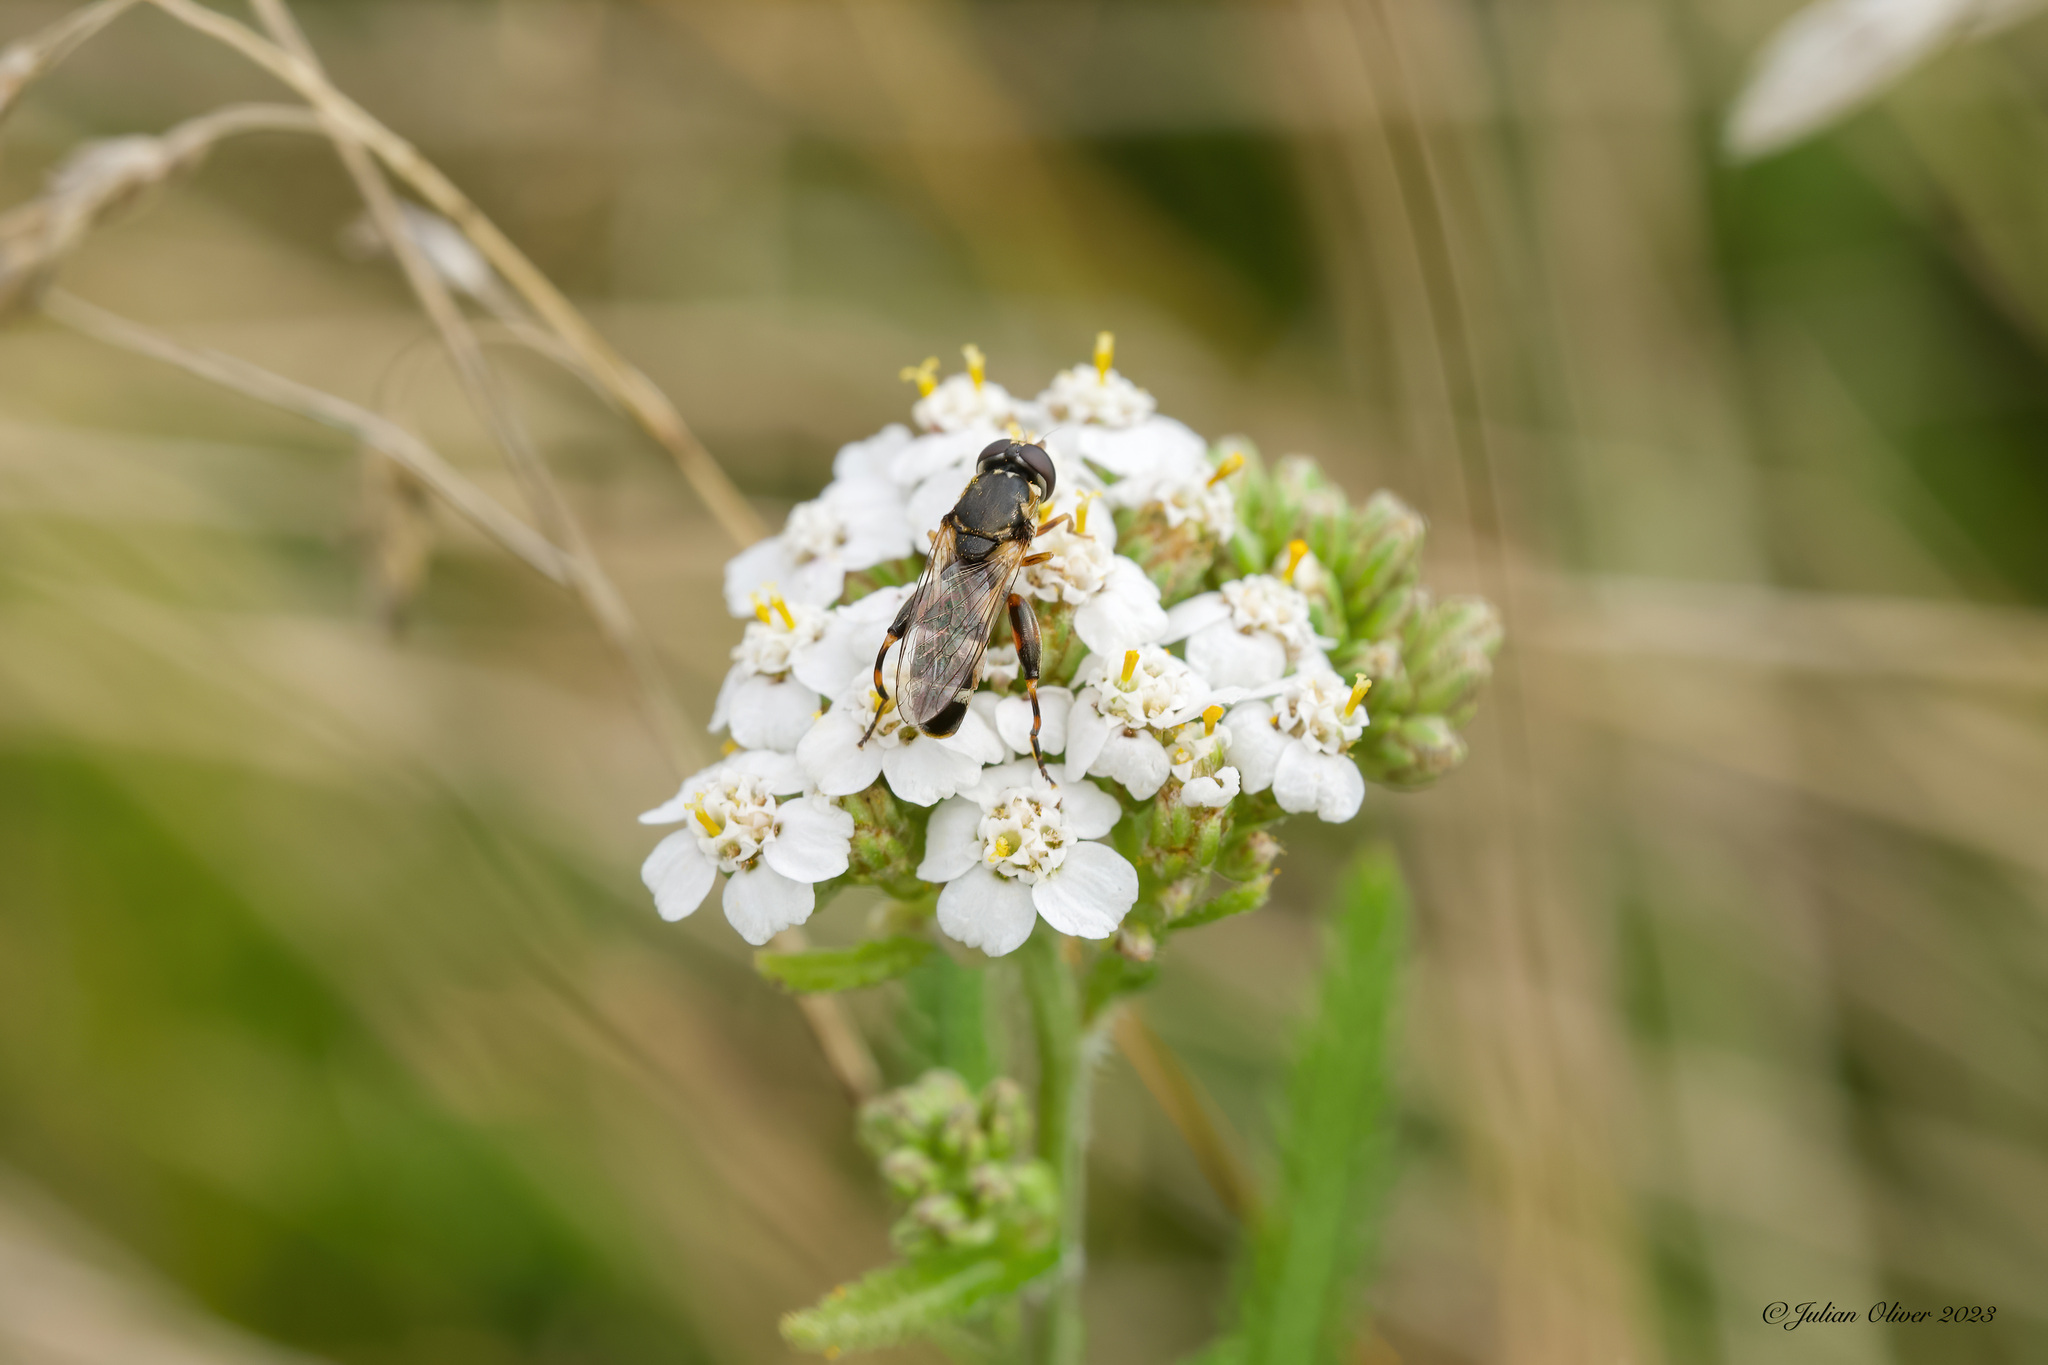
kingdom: Animalia
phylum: Arthropoda
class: Insecta
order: Diptera
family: Syrphidae
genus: Syritta
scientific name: Syritta pipiens
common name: Hover fly
